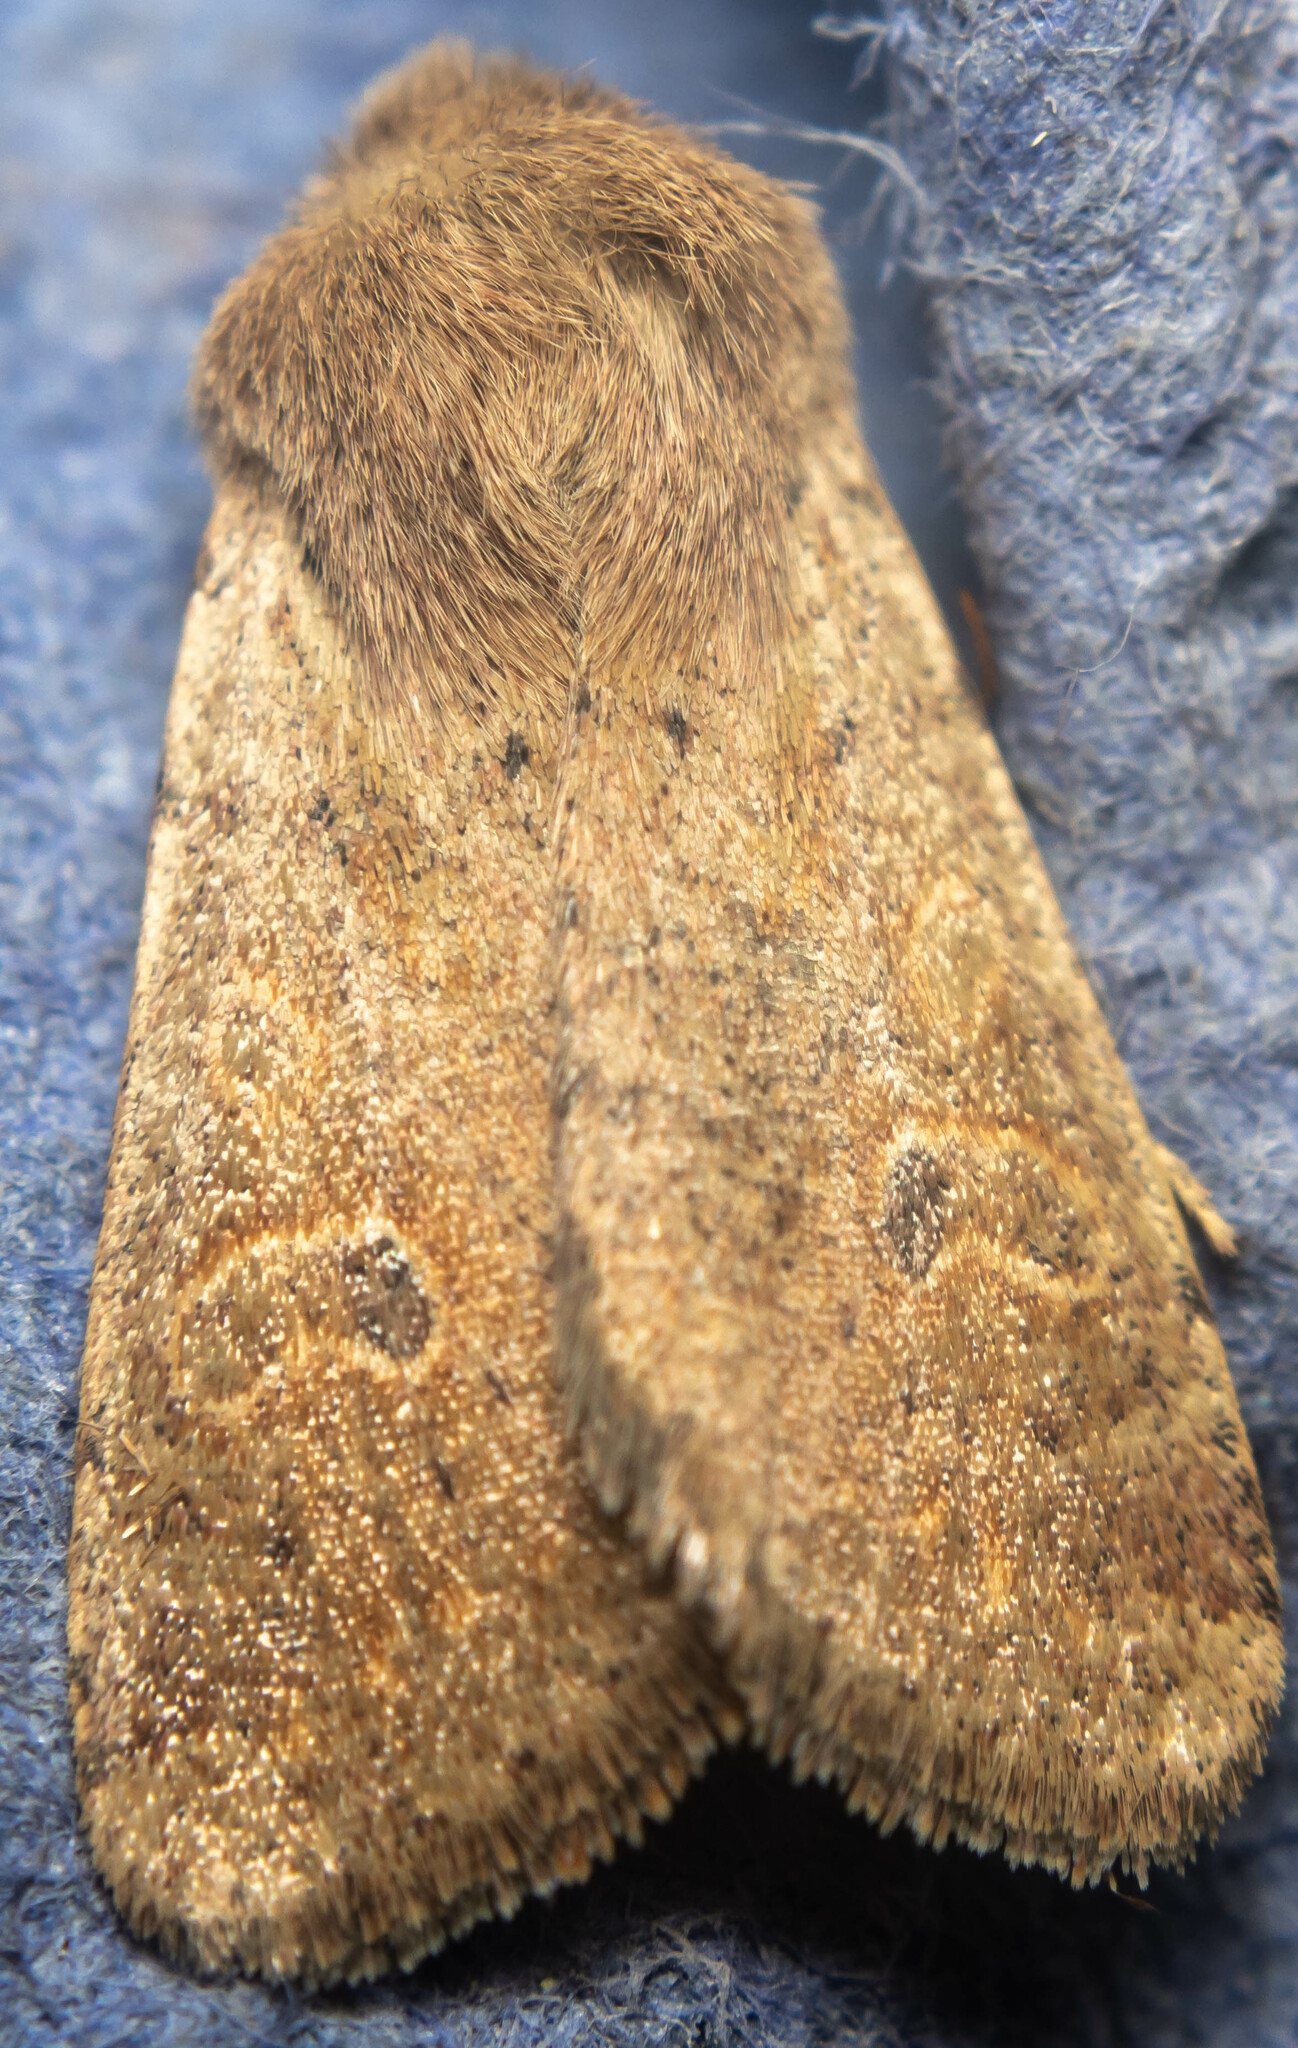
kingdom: Animalia
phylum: Arthropoda
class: Insecta
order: Lepidoptera
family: Noctuidae
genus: Orthosia
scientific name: Orthosia cruda
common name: Small quaker
